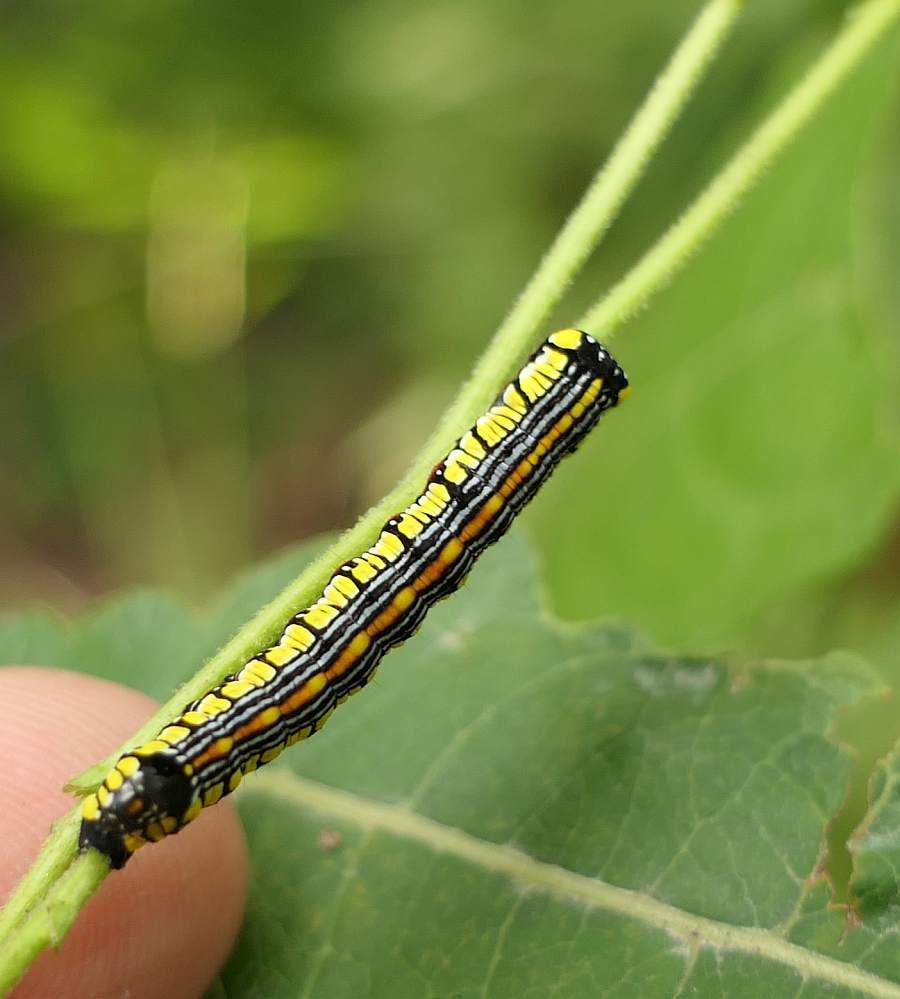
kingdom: Animalia
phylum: Arthropoda
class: Insecta
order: Lepidoptera
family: Noctuidae
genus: Cucullia
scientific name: Cucullia convexipennis
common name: Brown-hooded owlet
